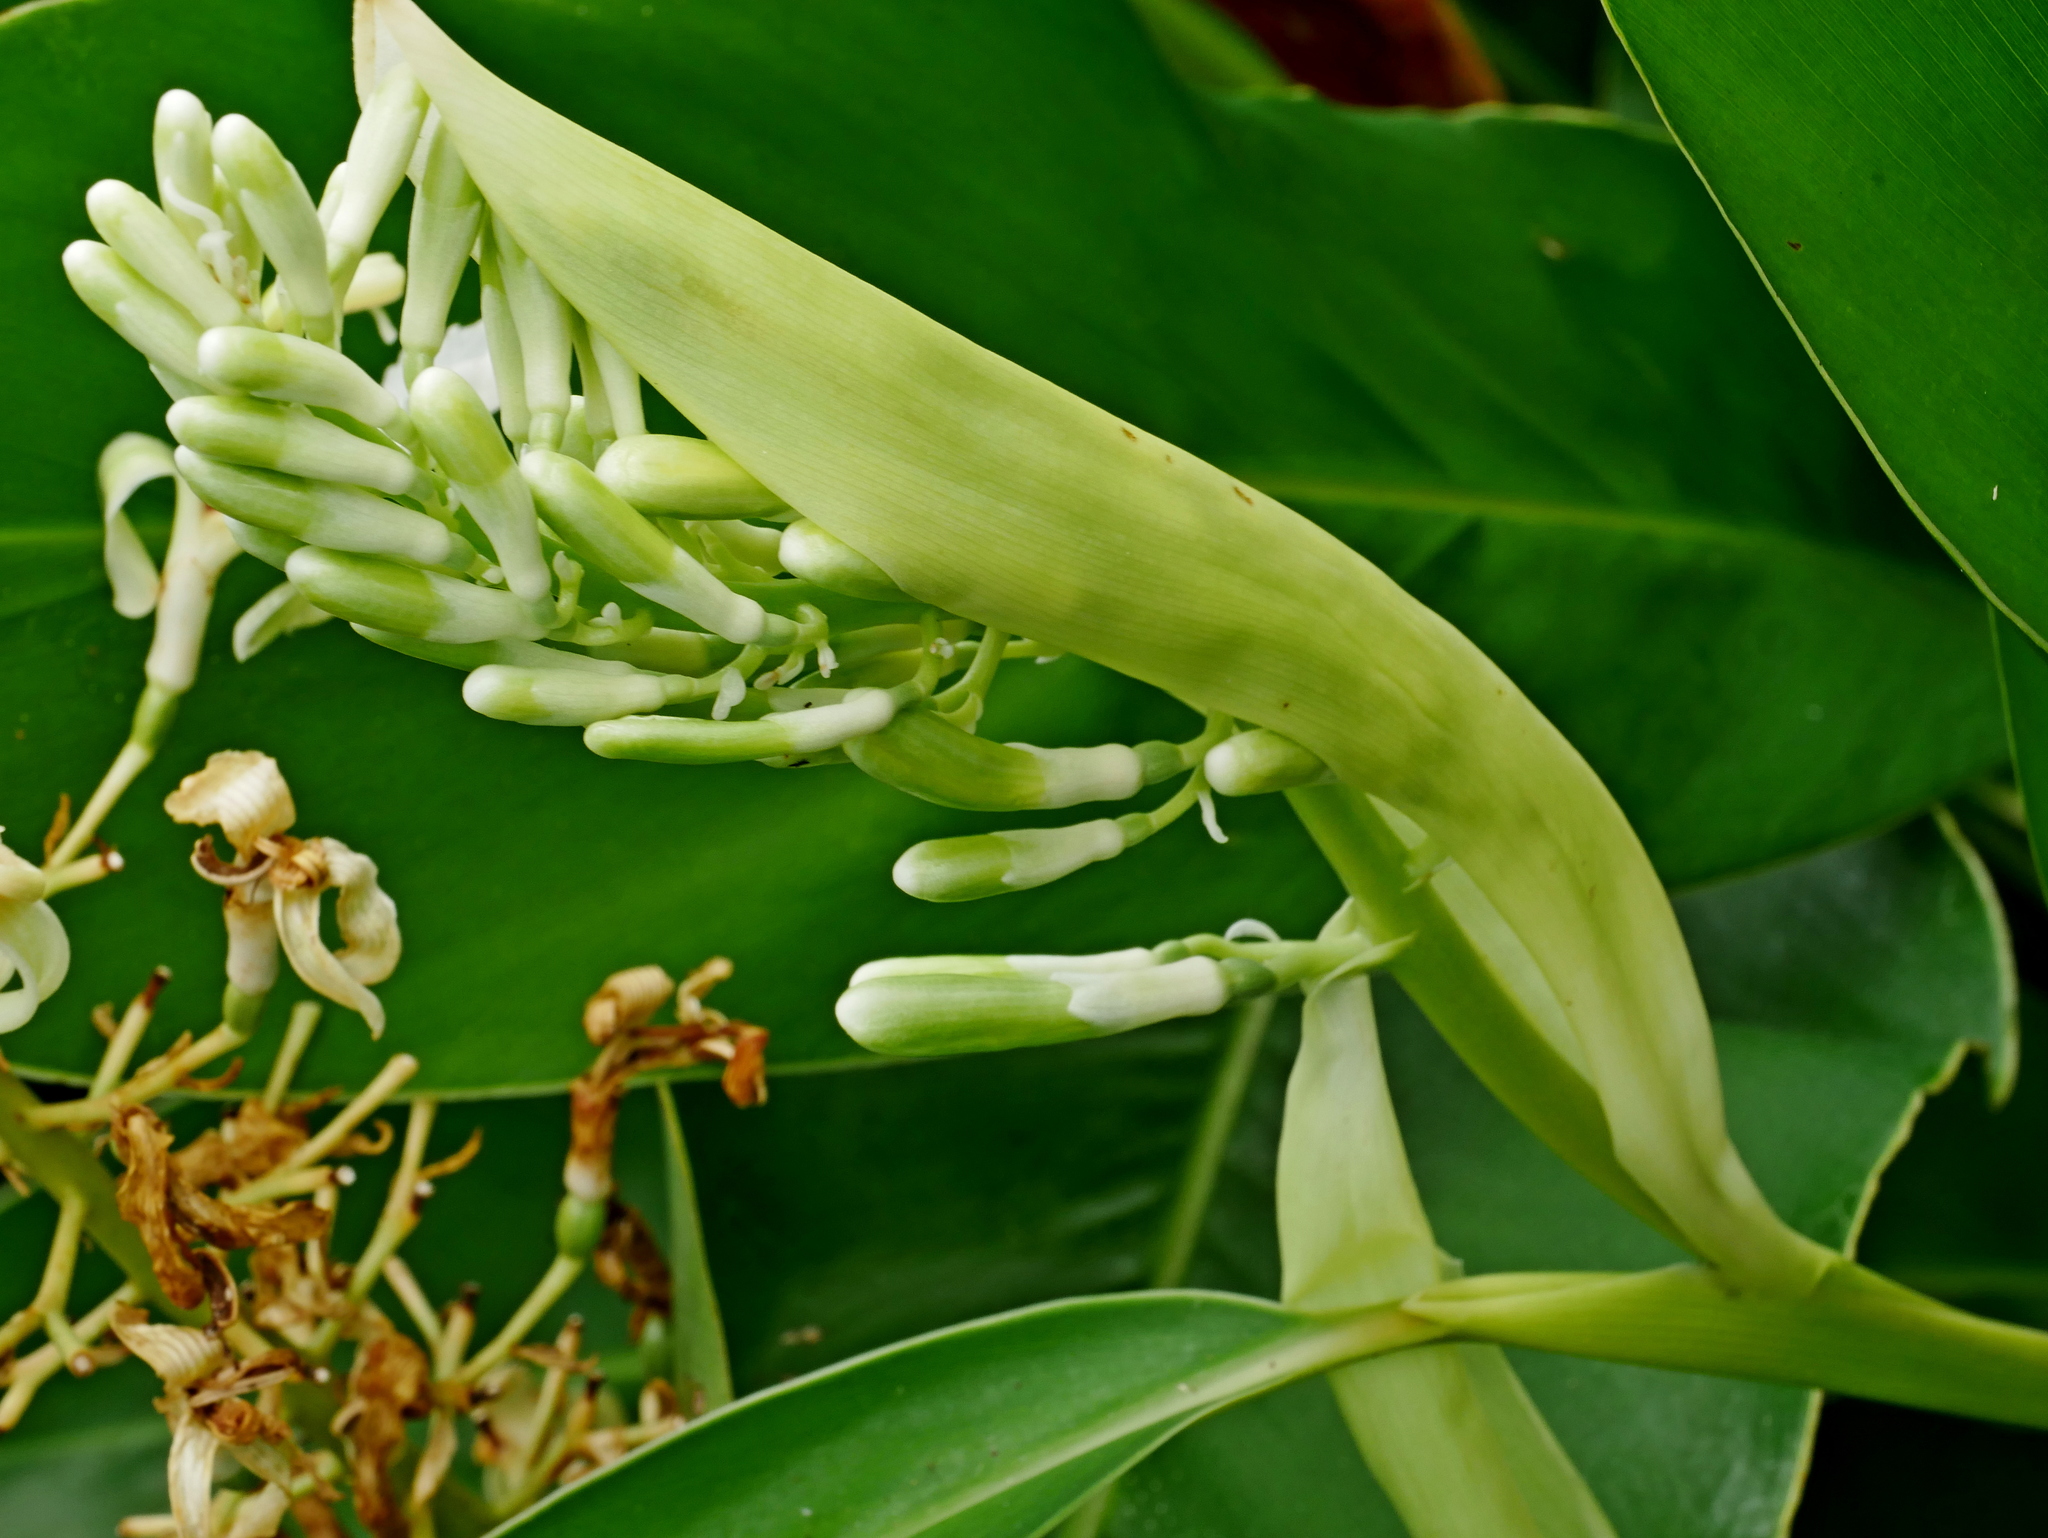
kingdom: Plantae
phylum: Tracheophyta
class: Liliopsida
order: Zingiberales
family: Zingiberaceae
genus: Alpinia
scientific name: Alpinia galanga
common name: Siamese-ginger
